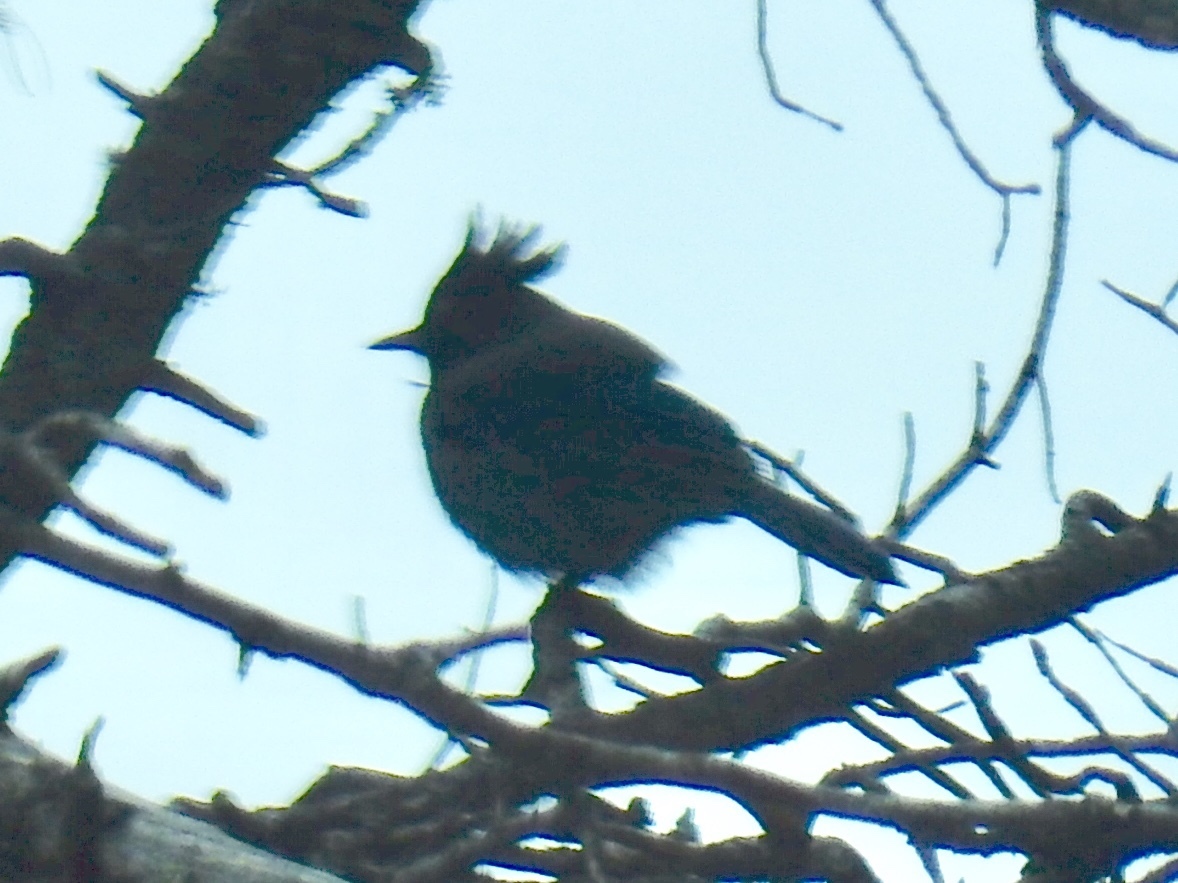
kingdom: Animalia
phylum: Chordata
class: Aves
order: Passeriformes
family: Corvidae
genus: Cyanocitta
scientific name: Cyanocitta stelleri
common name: Steller's jay
